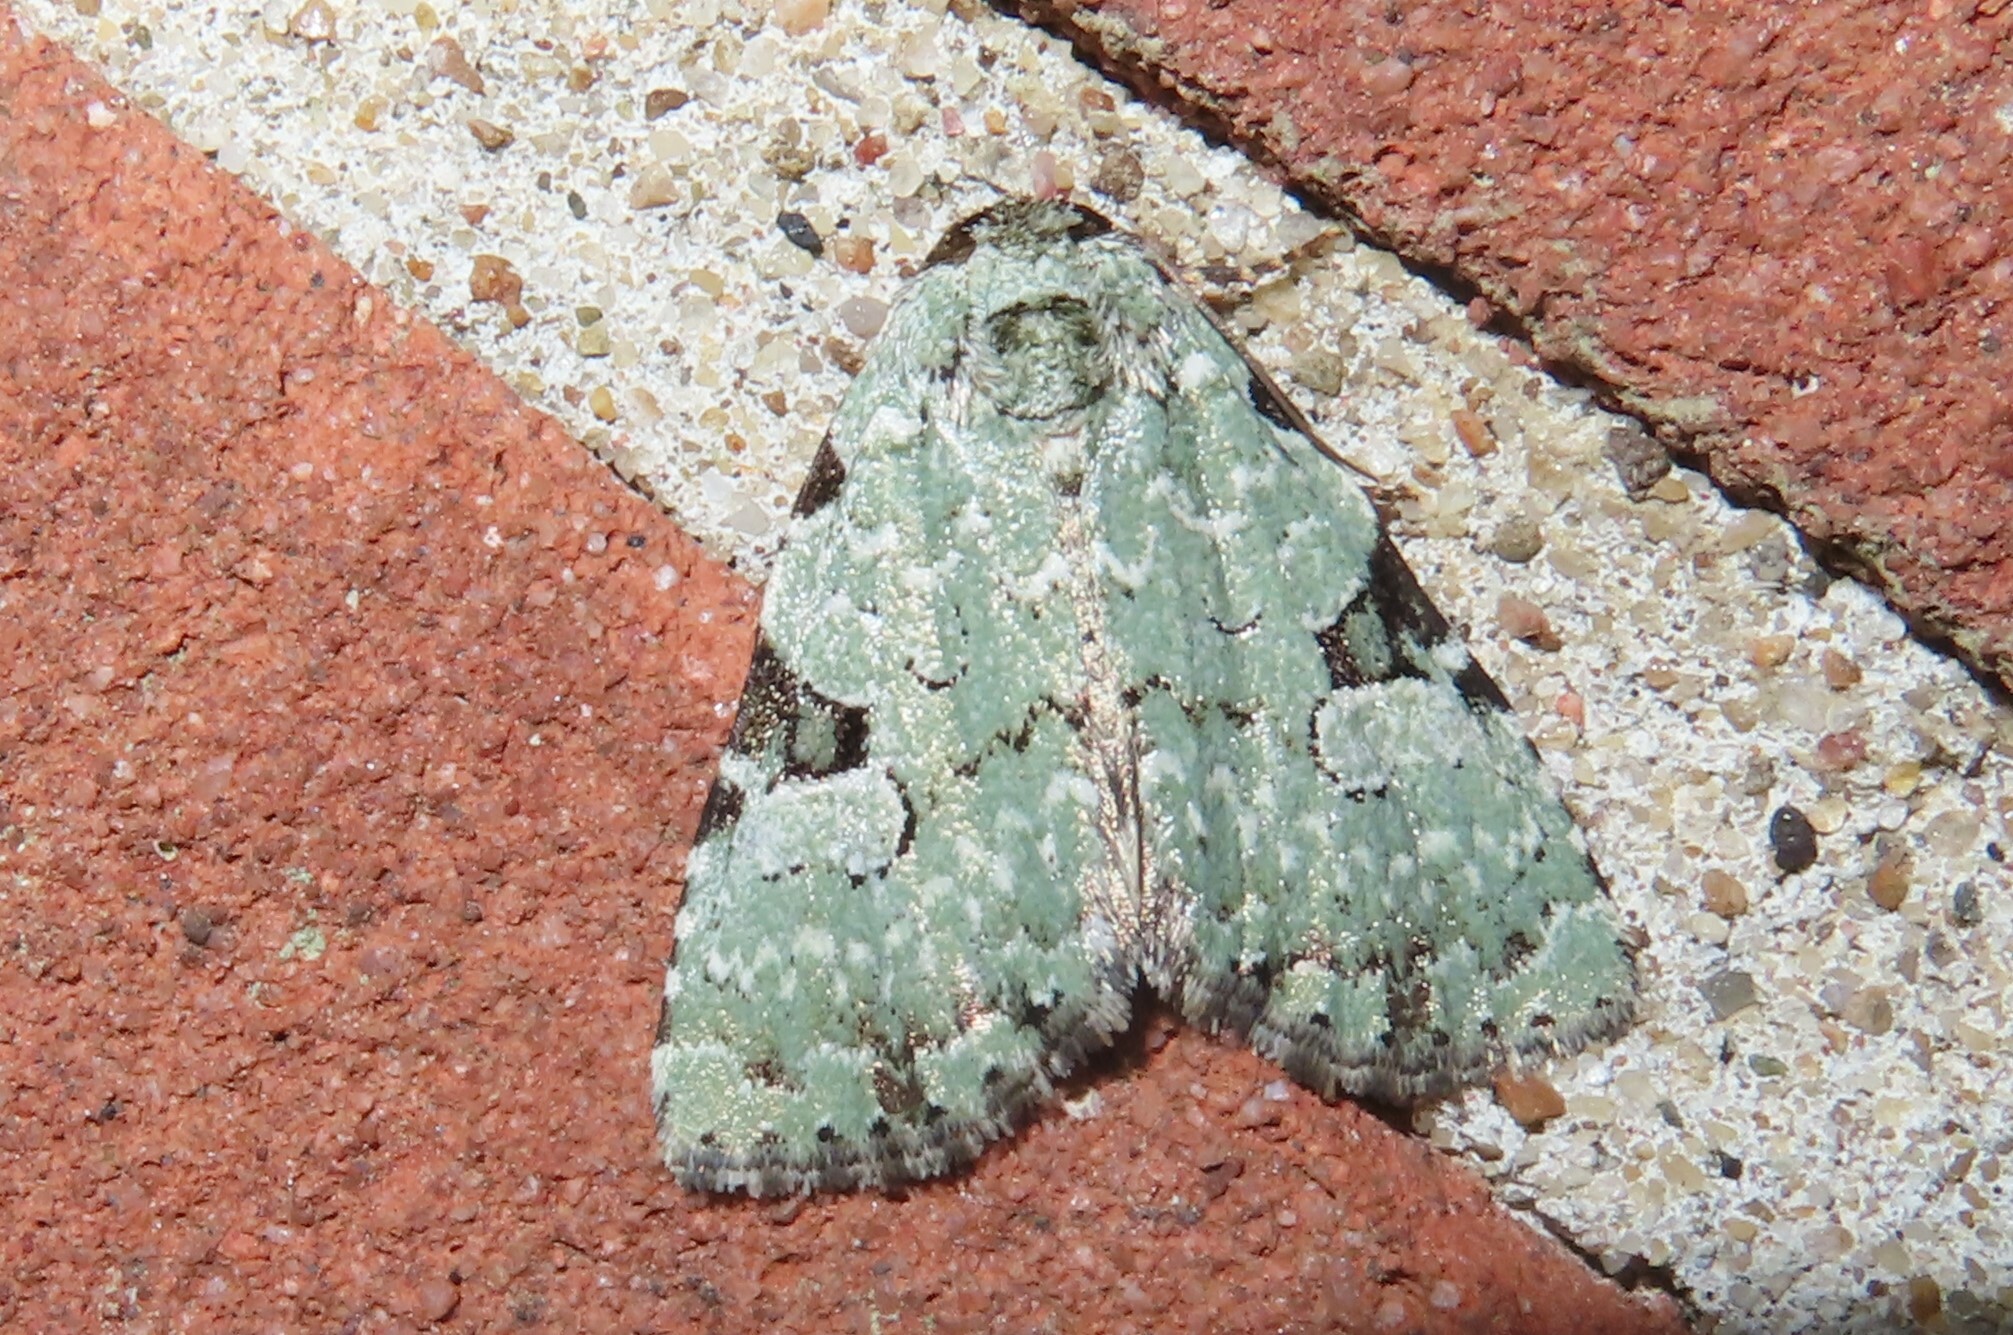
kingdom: Animalia
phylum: Arthropoda
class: Insecta
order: Lepidoptera
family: Noctuidae
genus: Leuconycta
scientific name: Leuconycta diphteroides
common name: Green leuconycta moth
